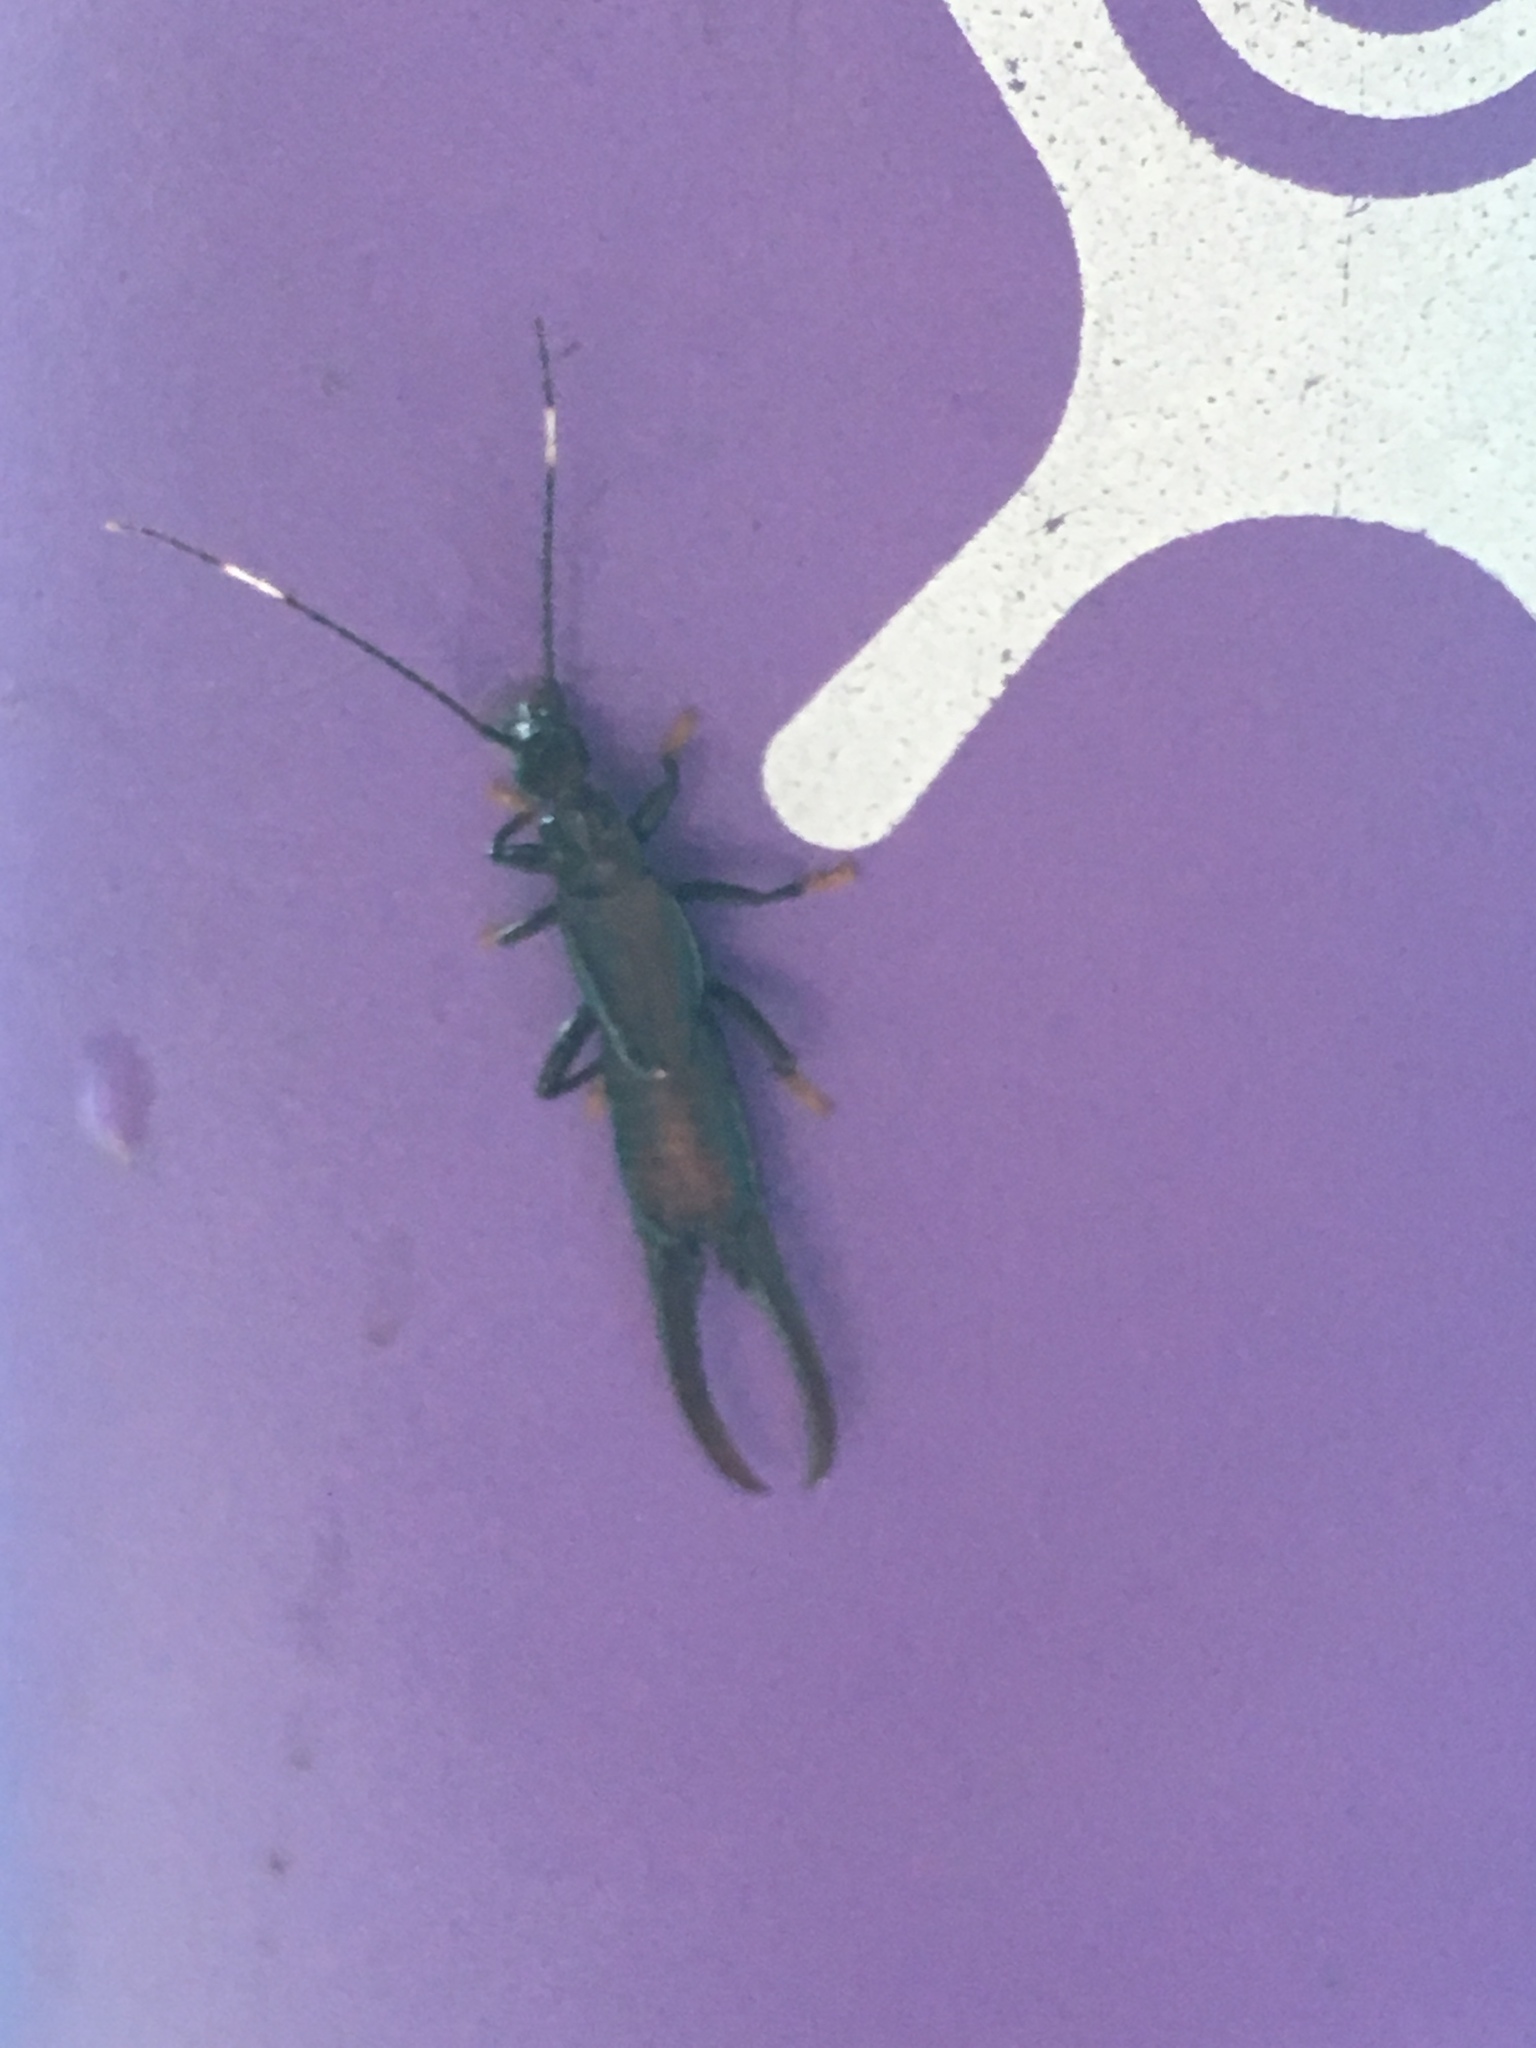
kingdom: Animalia
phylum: Arthropoda
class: Insecta
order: Dermaptera
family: Chelisochidae
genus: Chelisoches
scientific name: Chelisoches morio
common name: Black earwig
